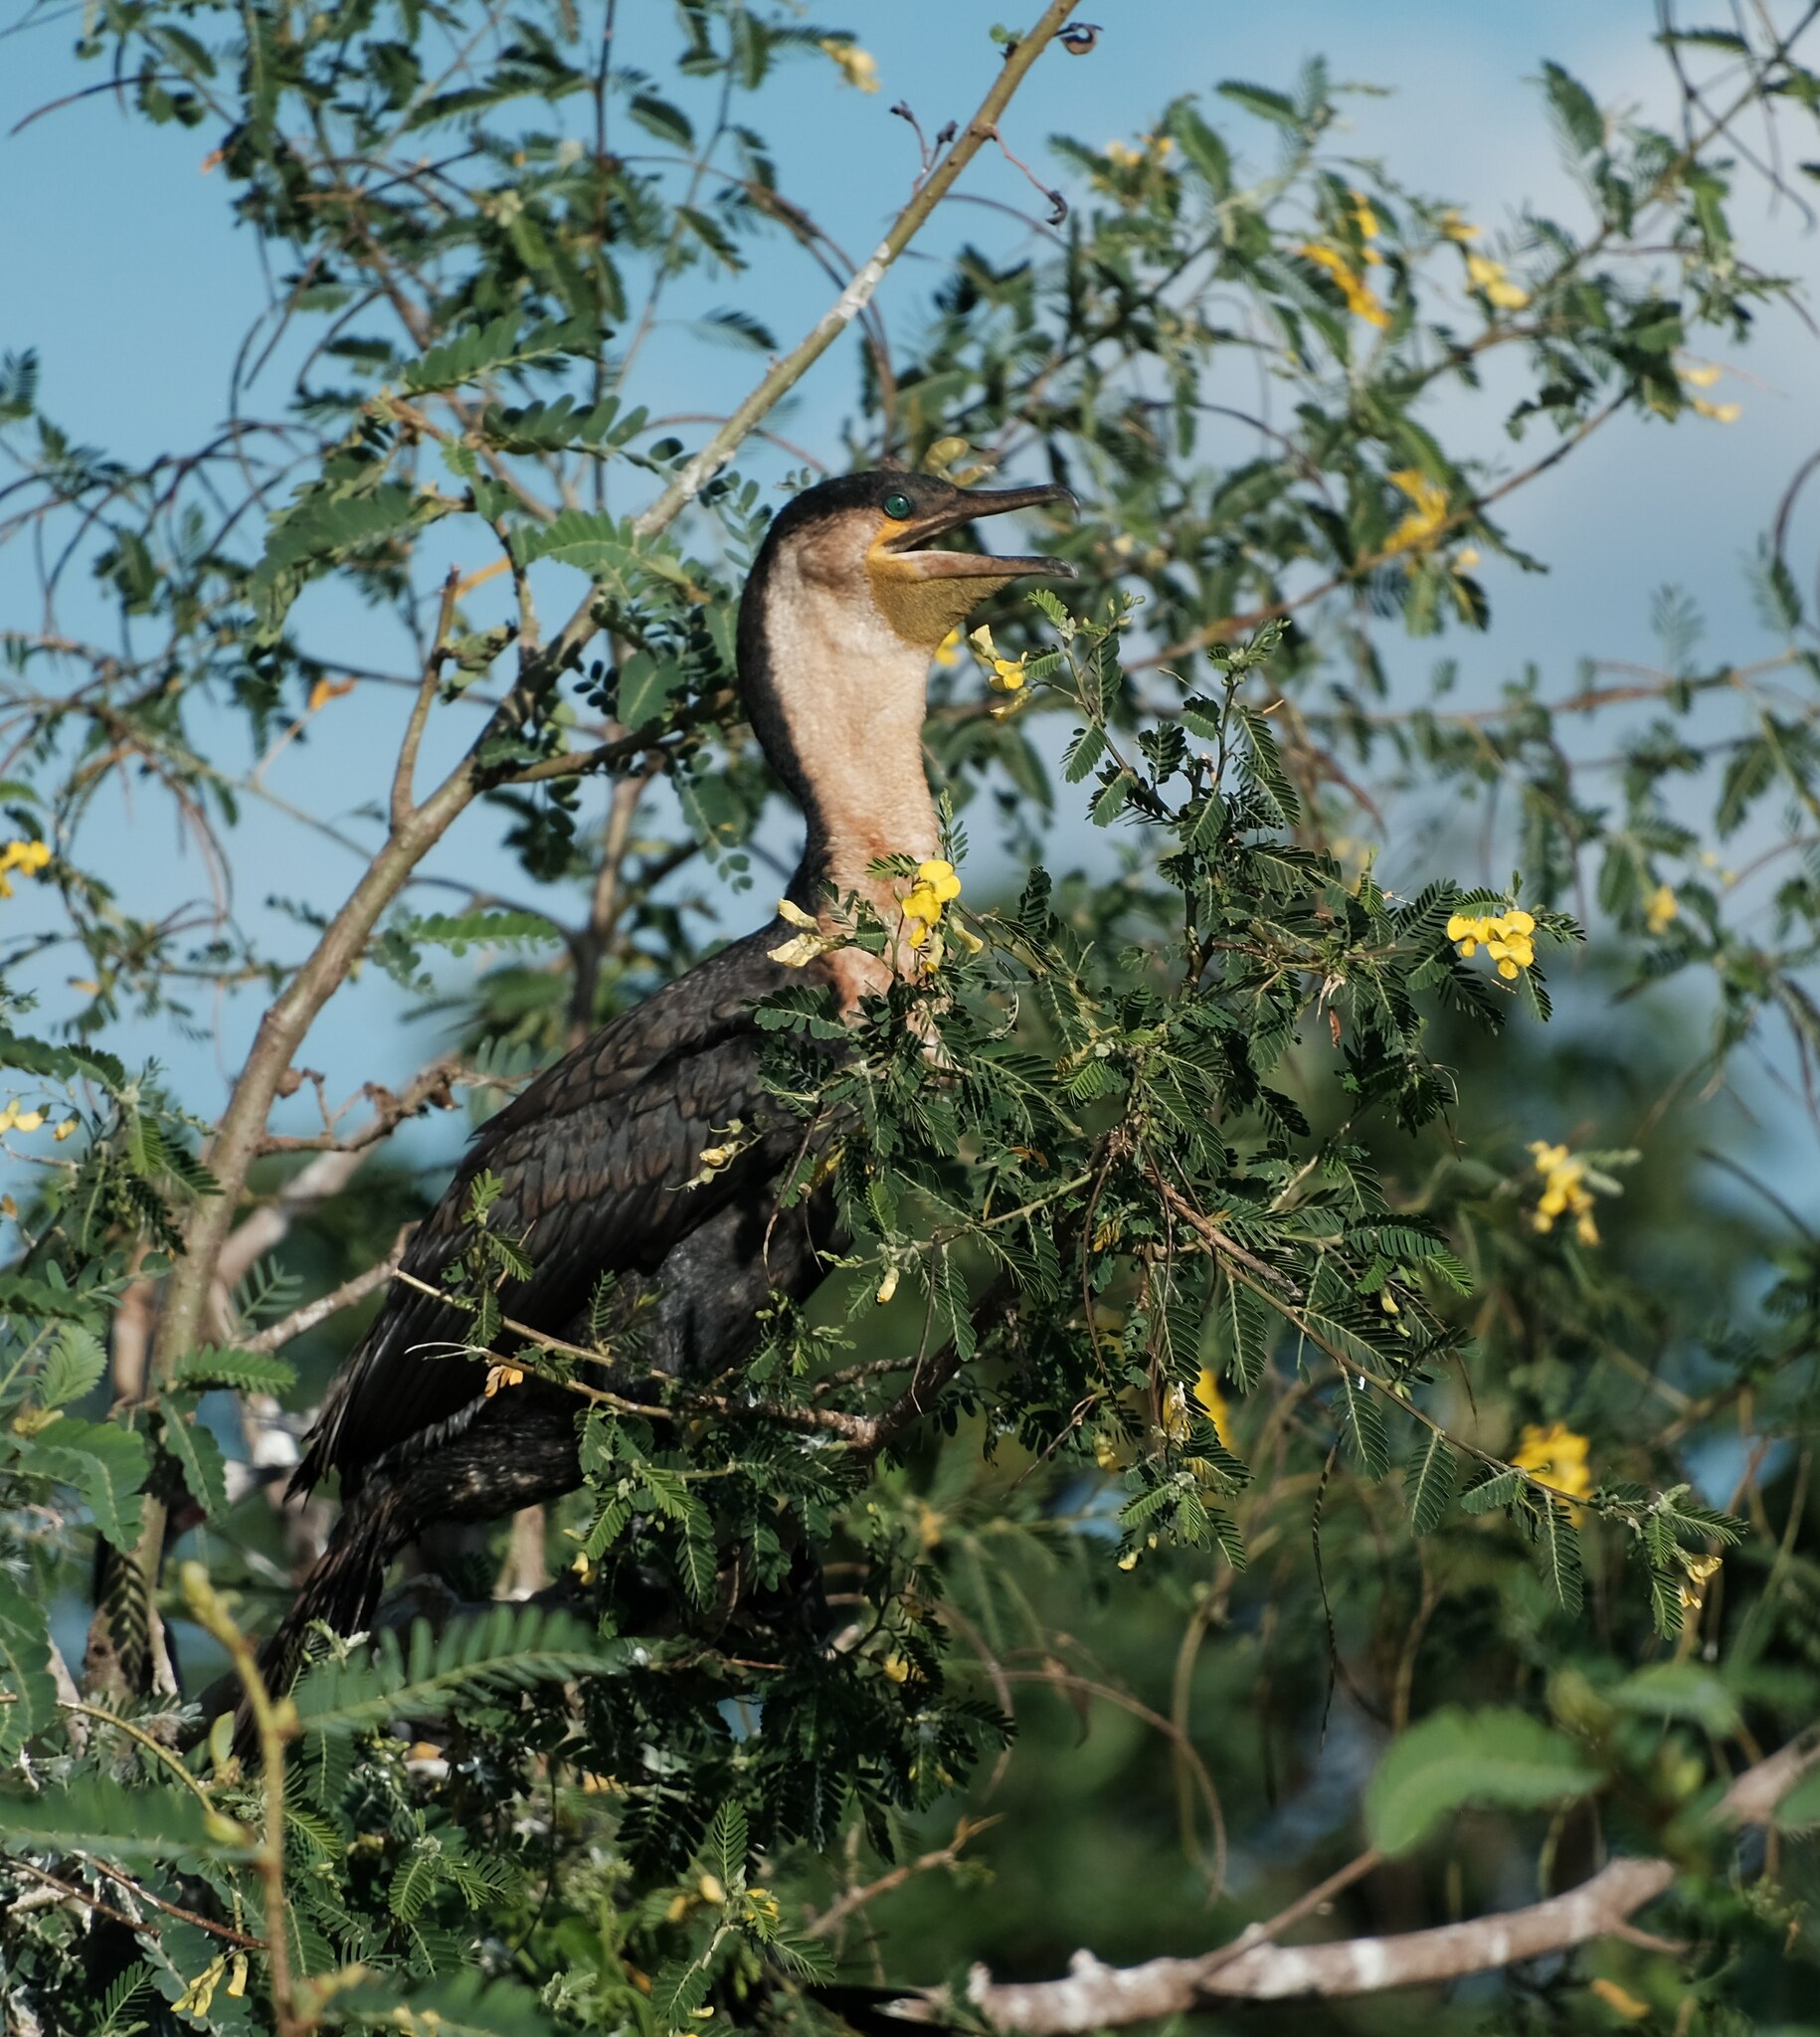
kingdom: Animalia
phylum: Chordata
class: Aves
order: Suliformes
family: Phalacrocoracidae
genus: Phalacrocorax
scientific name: Phalacrocorax carbo
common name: Great cormorant
